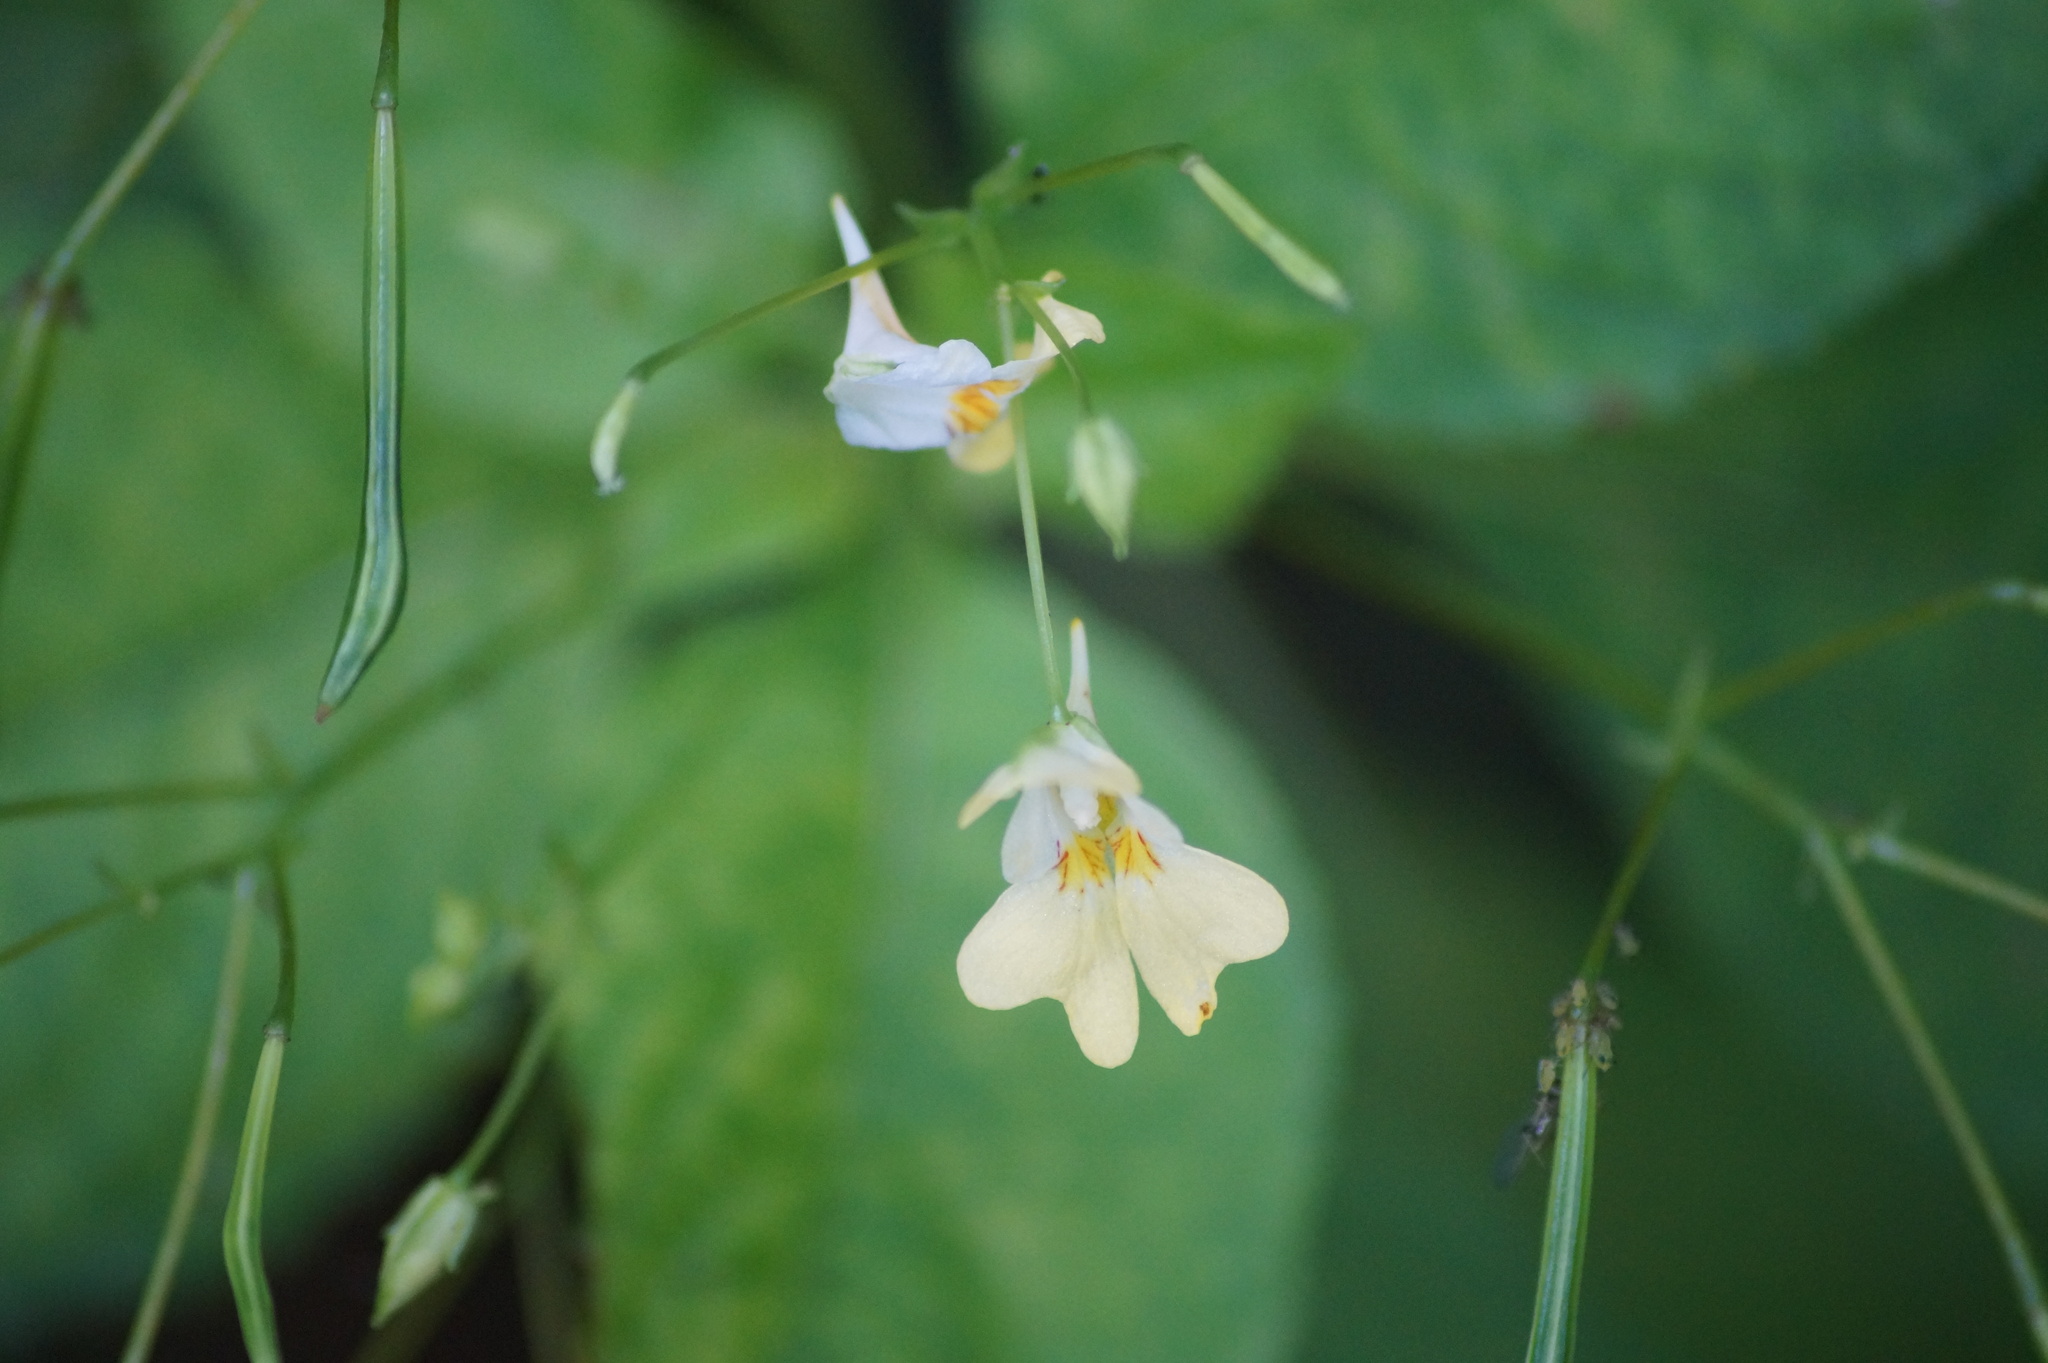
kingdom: Plantae
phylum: Tracheophyta
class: Magnoliopsida
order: Ericales
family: Balsaminaceae
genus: Impatiens
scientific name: Impatiens parviflora
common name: Small balsam
